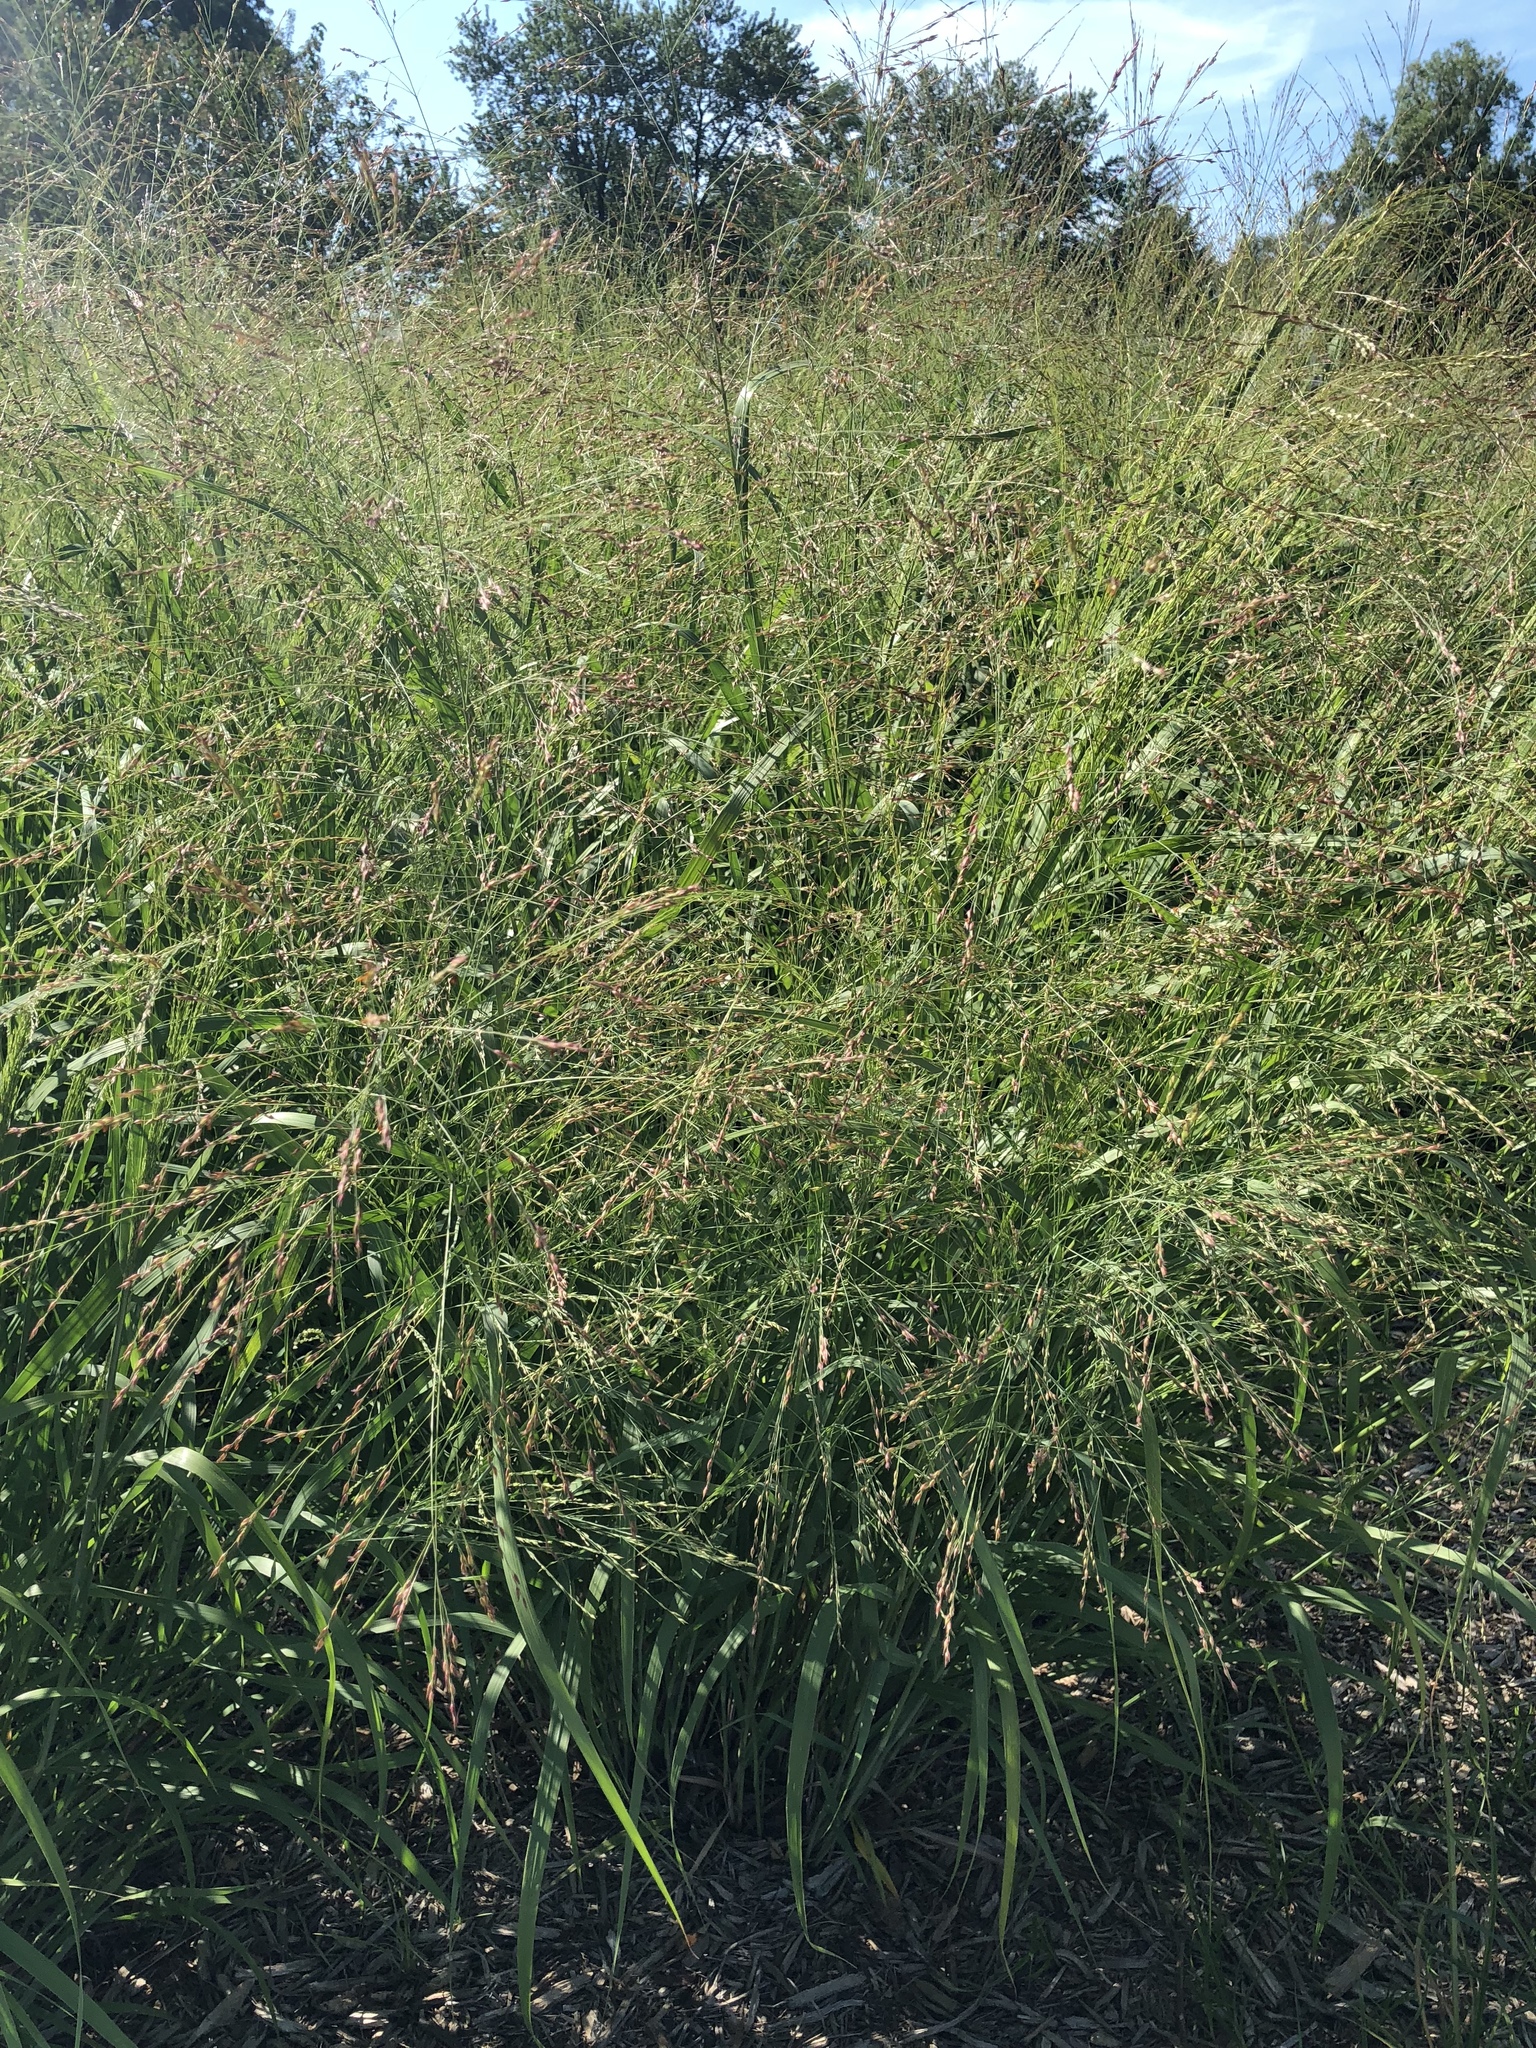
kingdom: Plantae
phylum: Tracheophyta
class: Liliopsida
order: Poales
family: Poaceae
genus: Panicum
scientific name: Panicum virgatum
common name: Switchgrass
